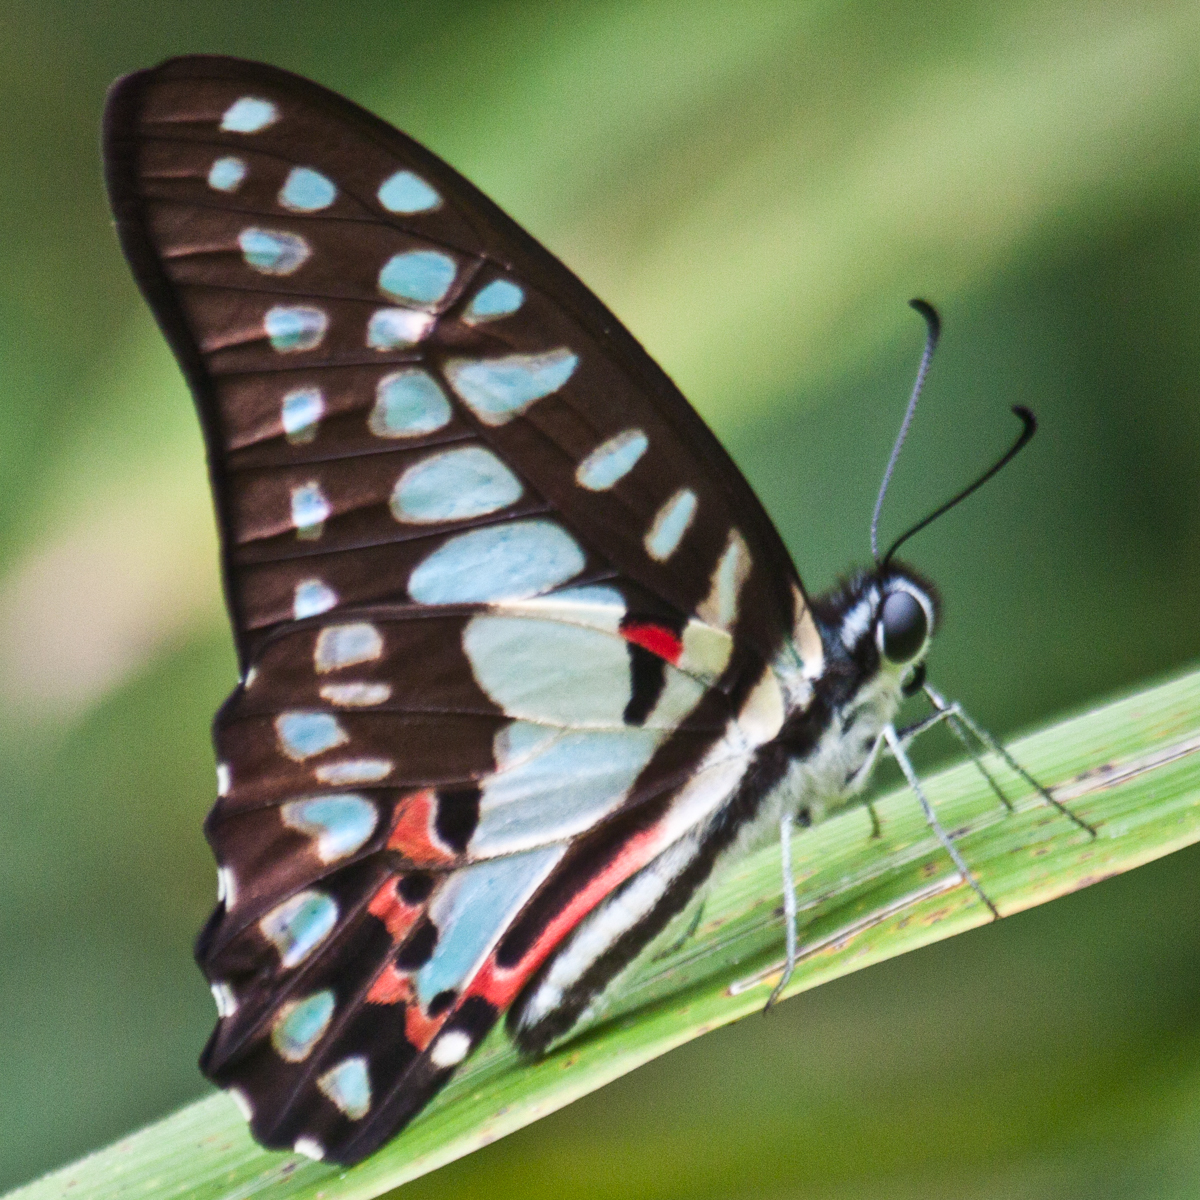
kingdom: Animalia
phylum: Arthropoda
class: Insecta
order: Lepidoptera
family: Papilionidae
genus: Graphium
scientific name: Graphium doson
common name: Common jay
